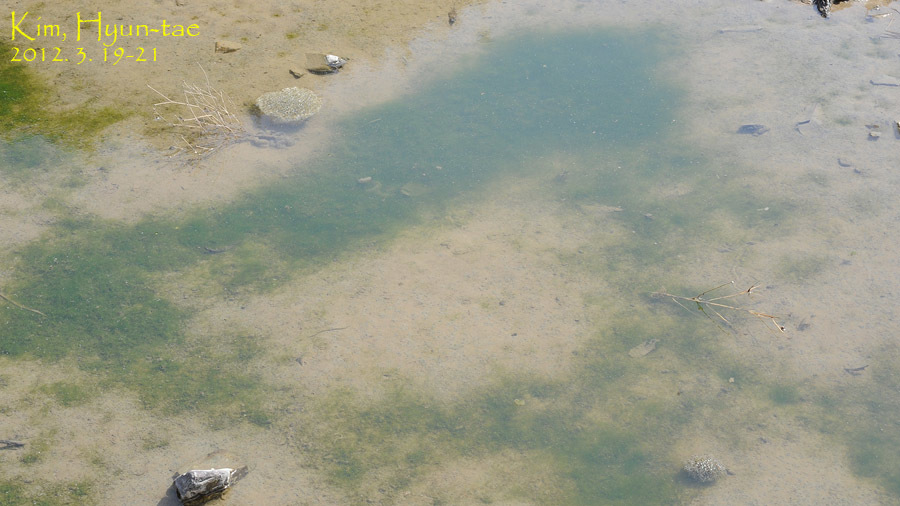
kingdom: Animalia
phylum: Chordata
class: Amphibia
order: Anura
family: Ranidae
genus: Rana
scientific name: Rana uenoi
